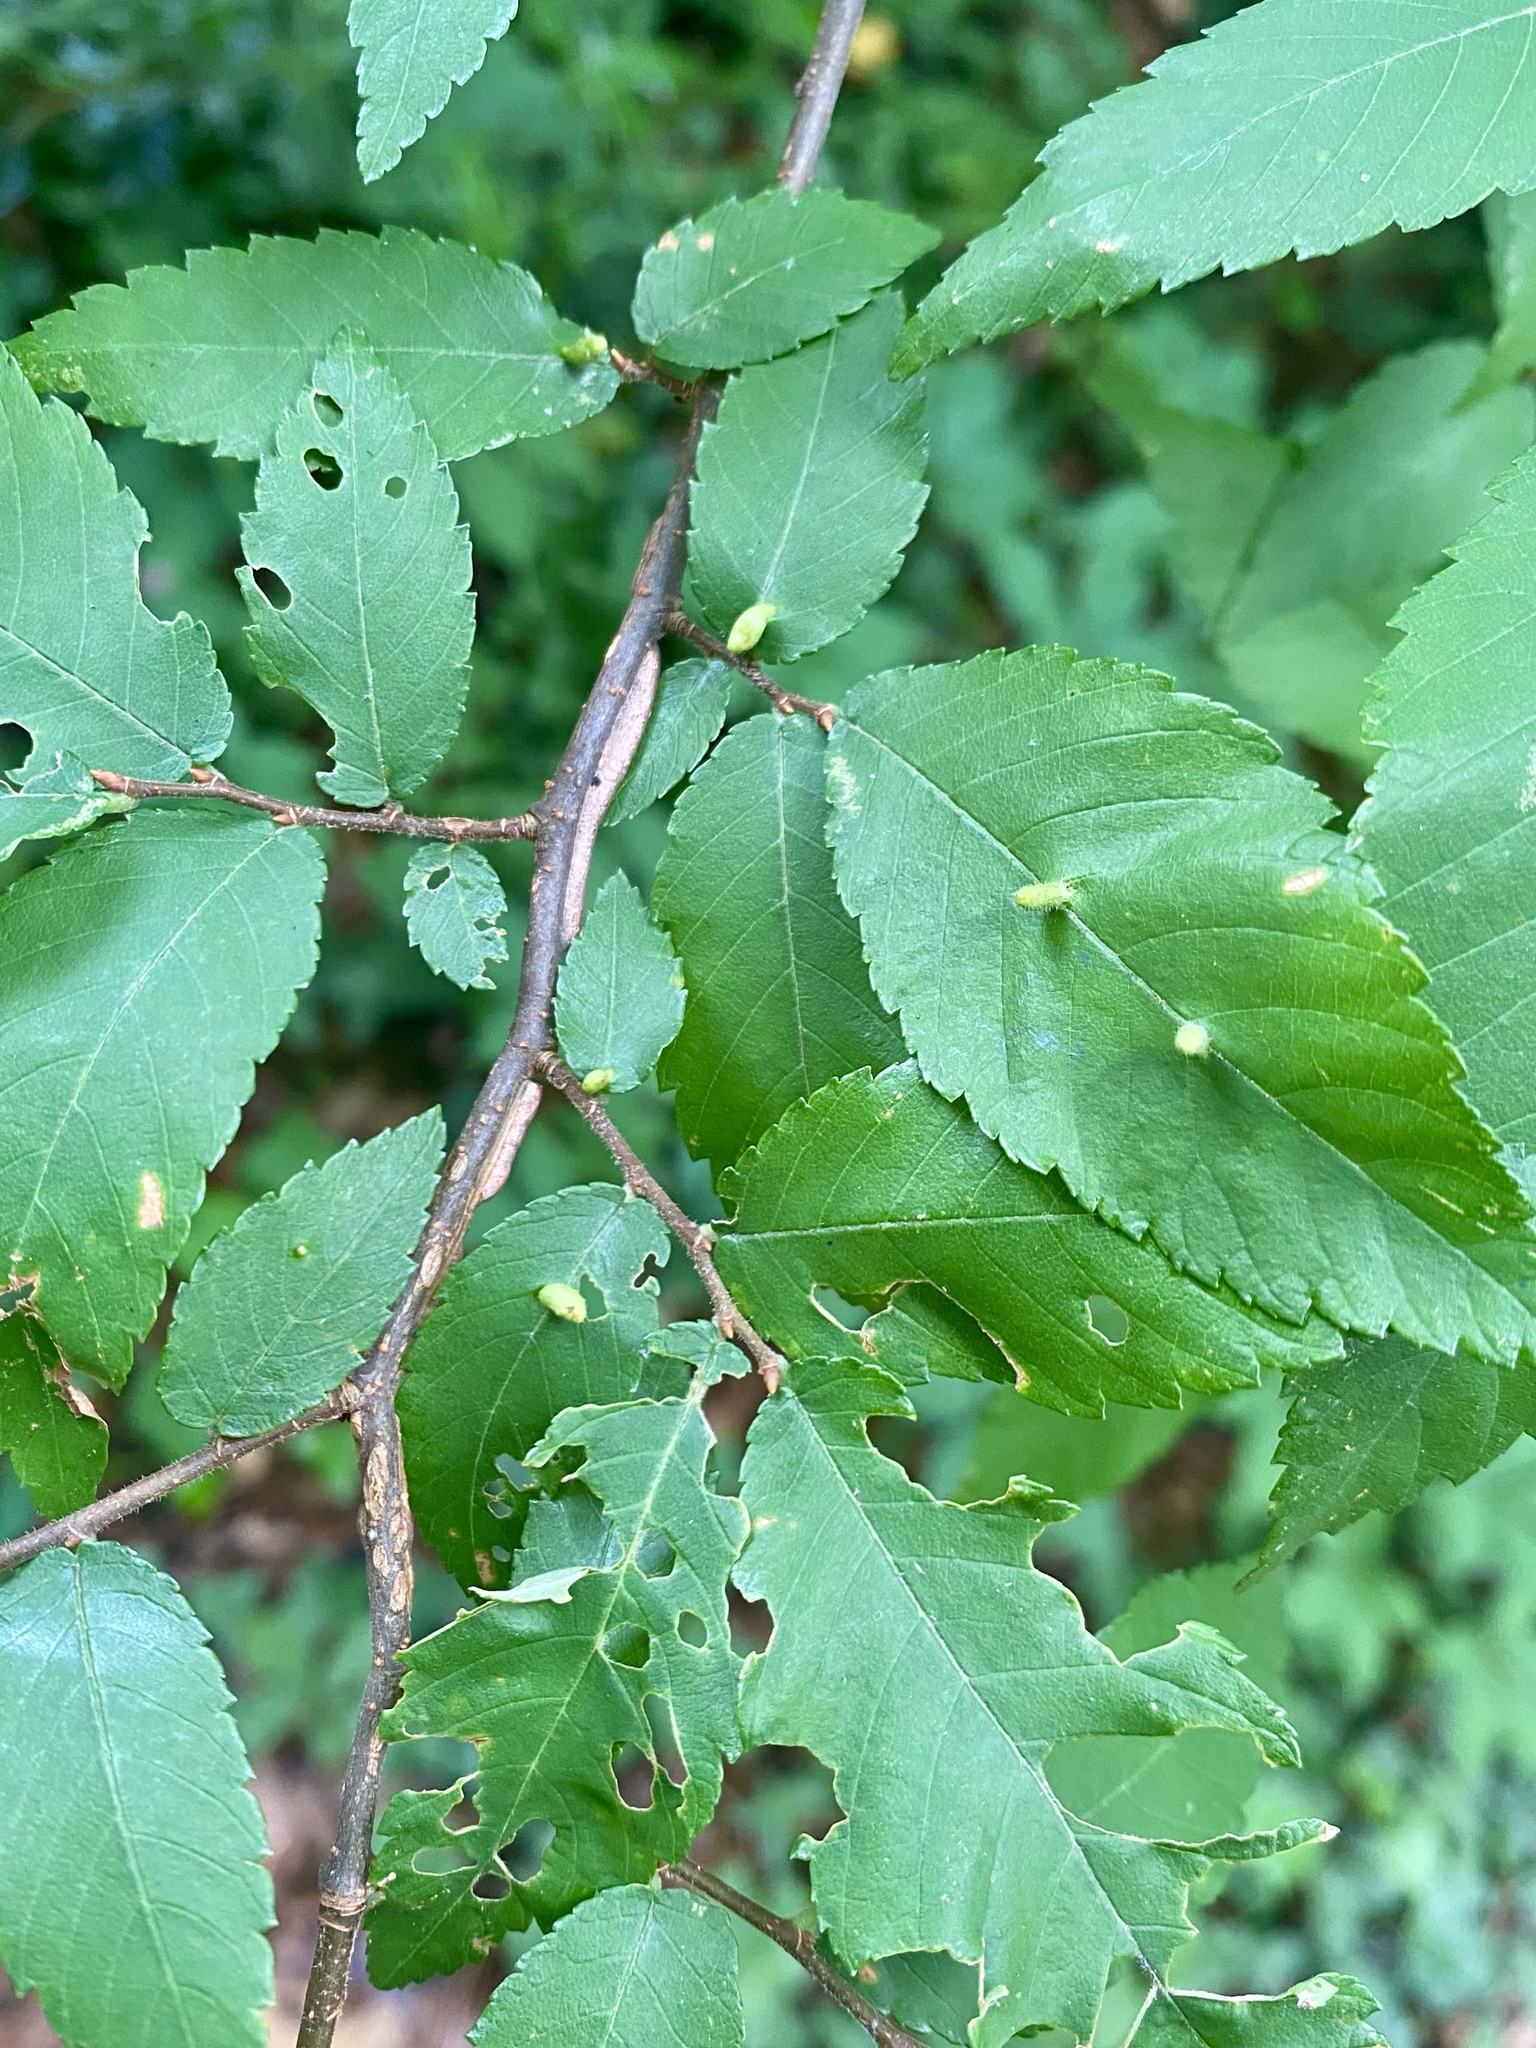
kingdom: Animalia
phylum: Arthropoda
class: Arachnida
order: Trombidiformes
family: Eriophyidae
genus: Aceria
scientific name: Aceria
